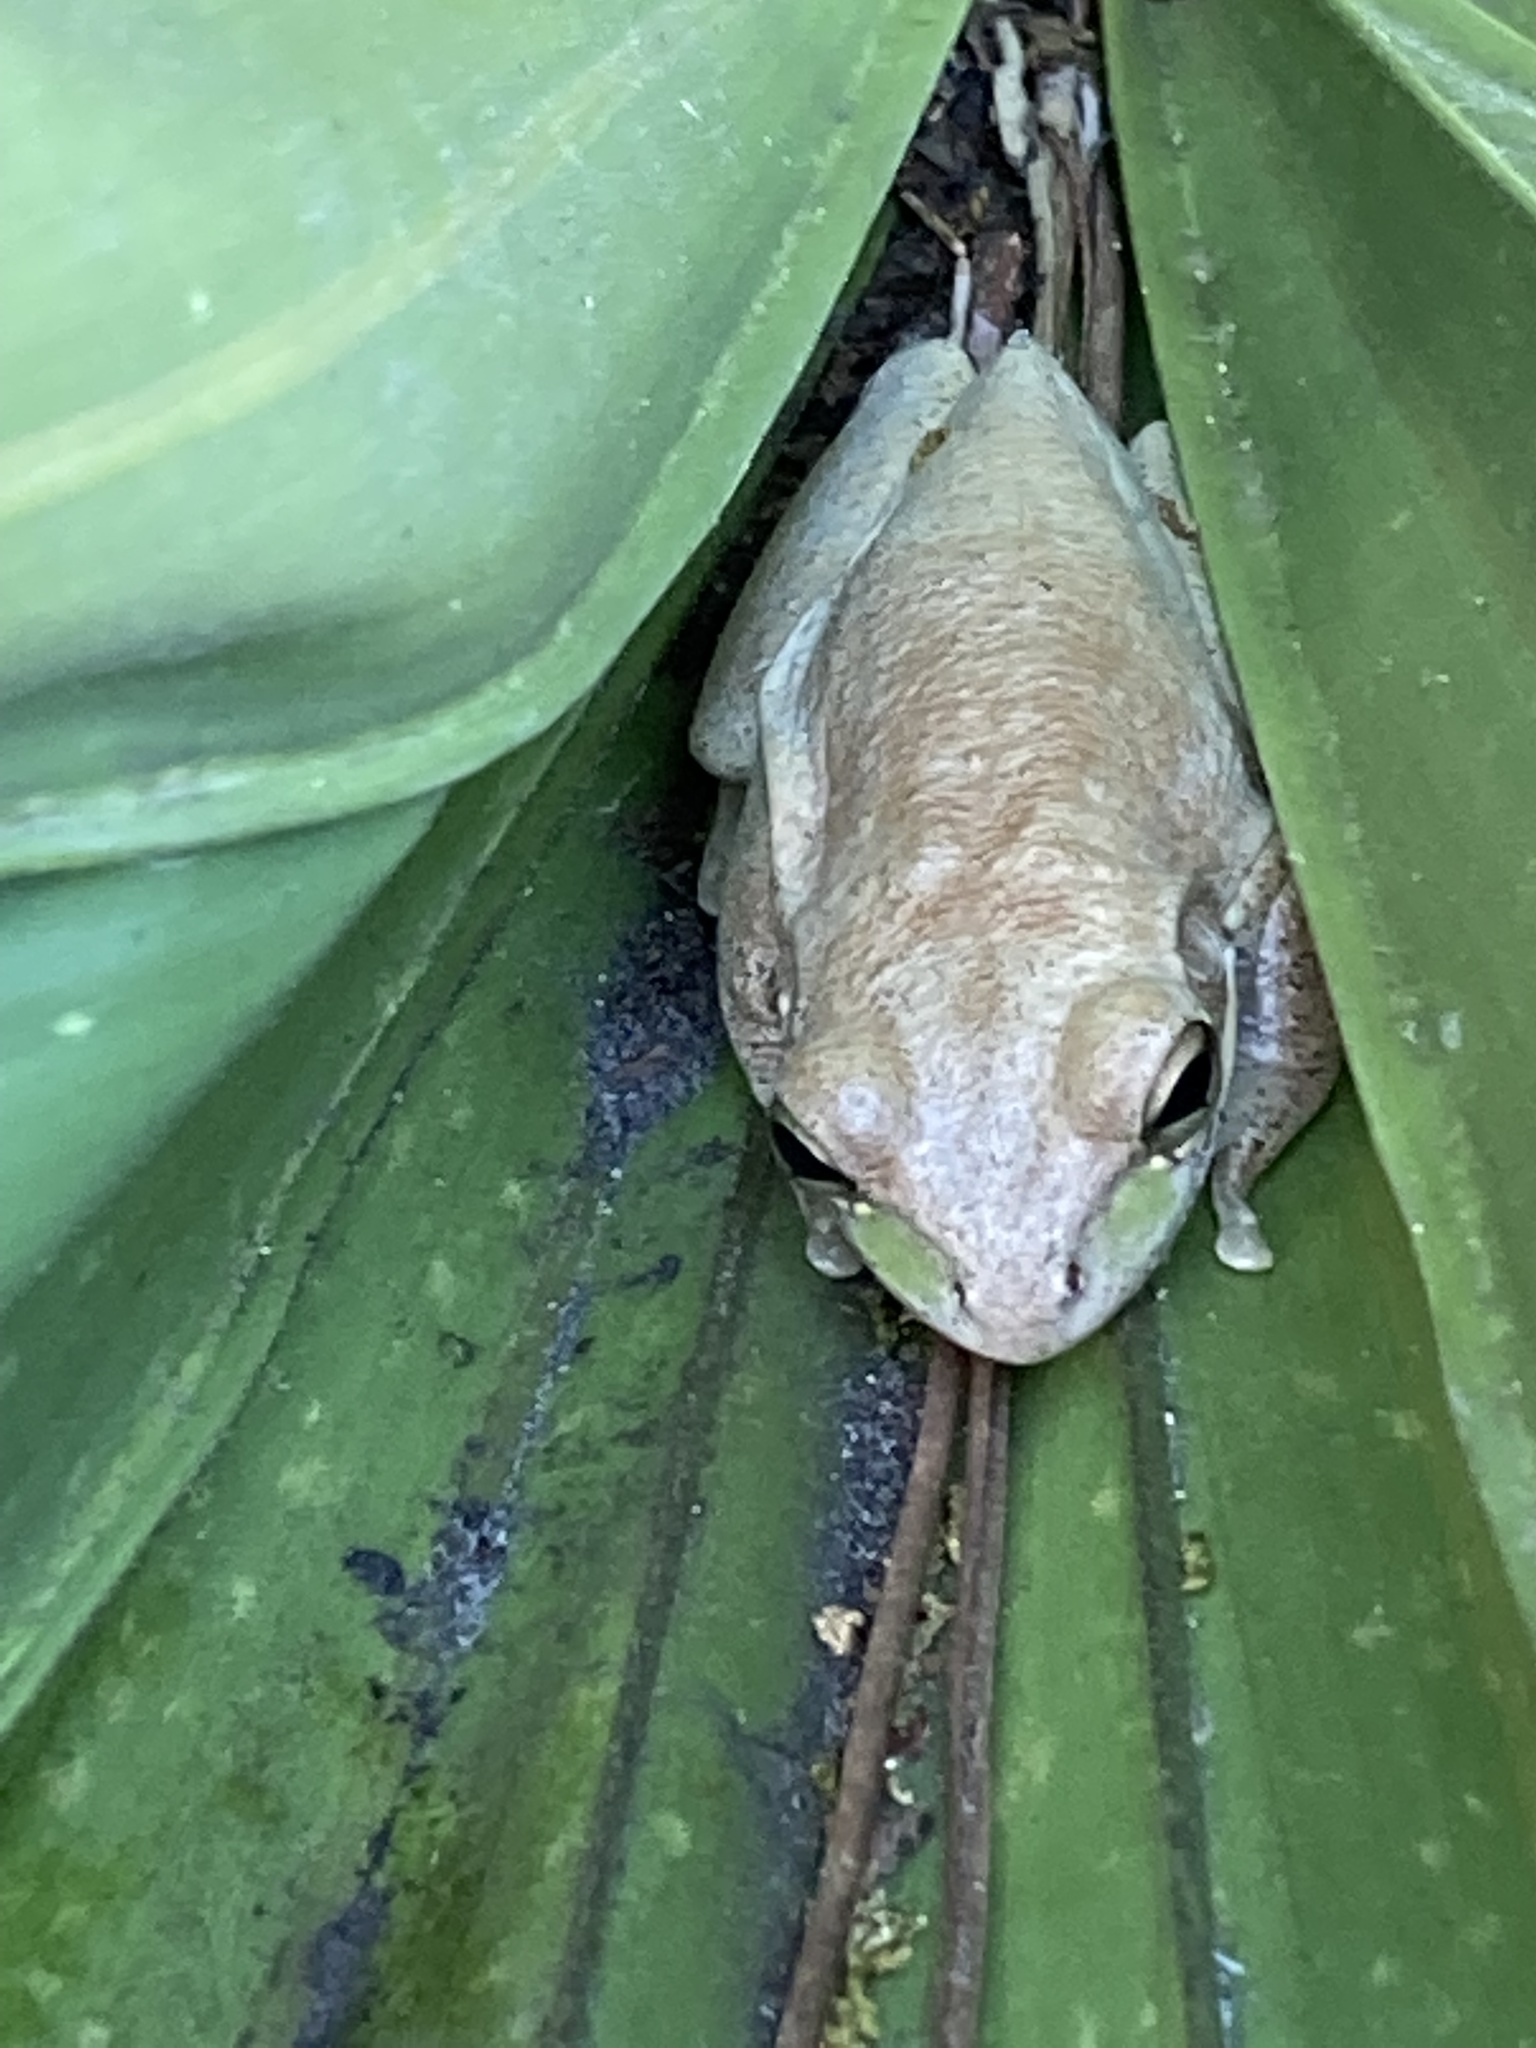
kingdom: Animalia
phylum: Chordata
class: Amphibia
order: Anura
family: Hylidae
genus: Osteopilus
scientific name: Osteopilus septentrionalis
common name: Cuban treefrog
